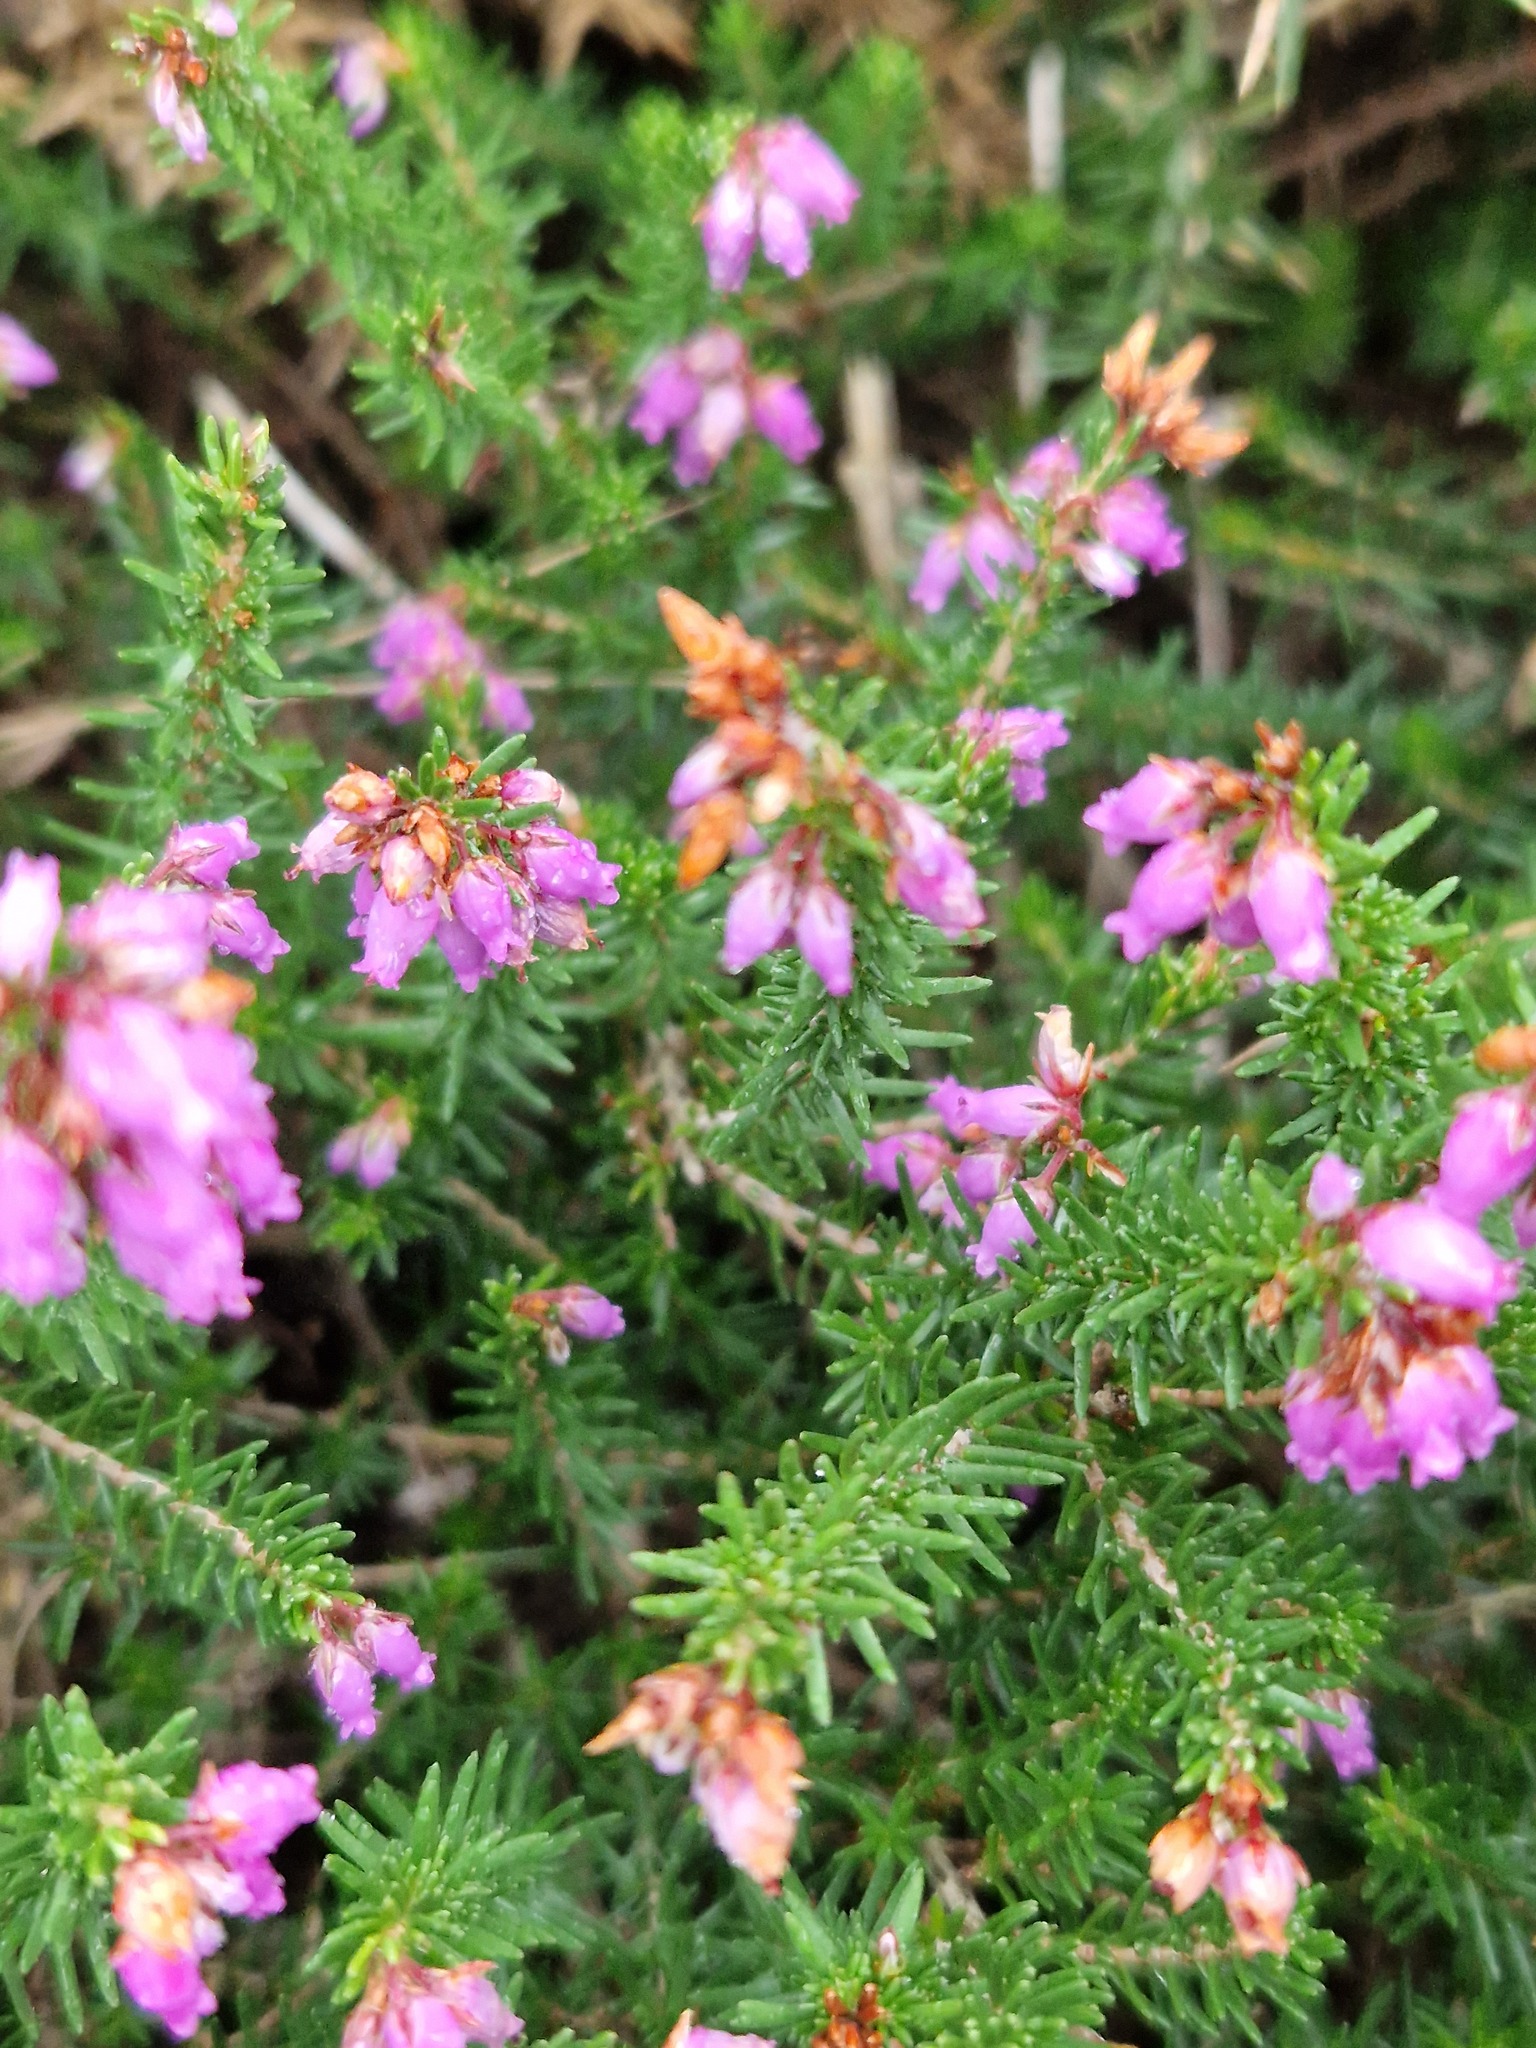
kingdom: Plantae
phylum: Tracheophyta
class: Magnoliopsida
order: Ericales
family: Ericaceae
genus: Erica
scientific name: Erica cinerea
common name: Bell heather
